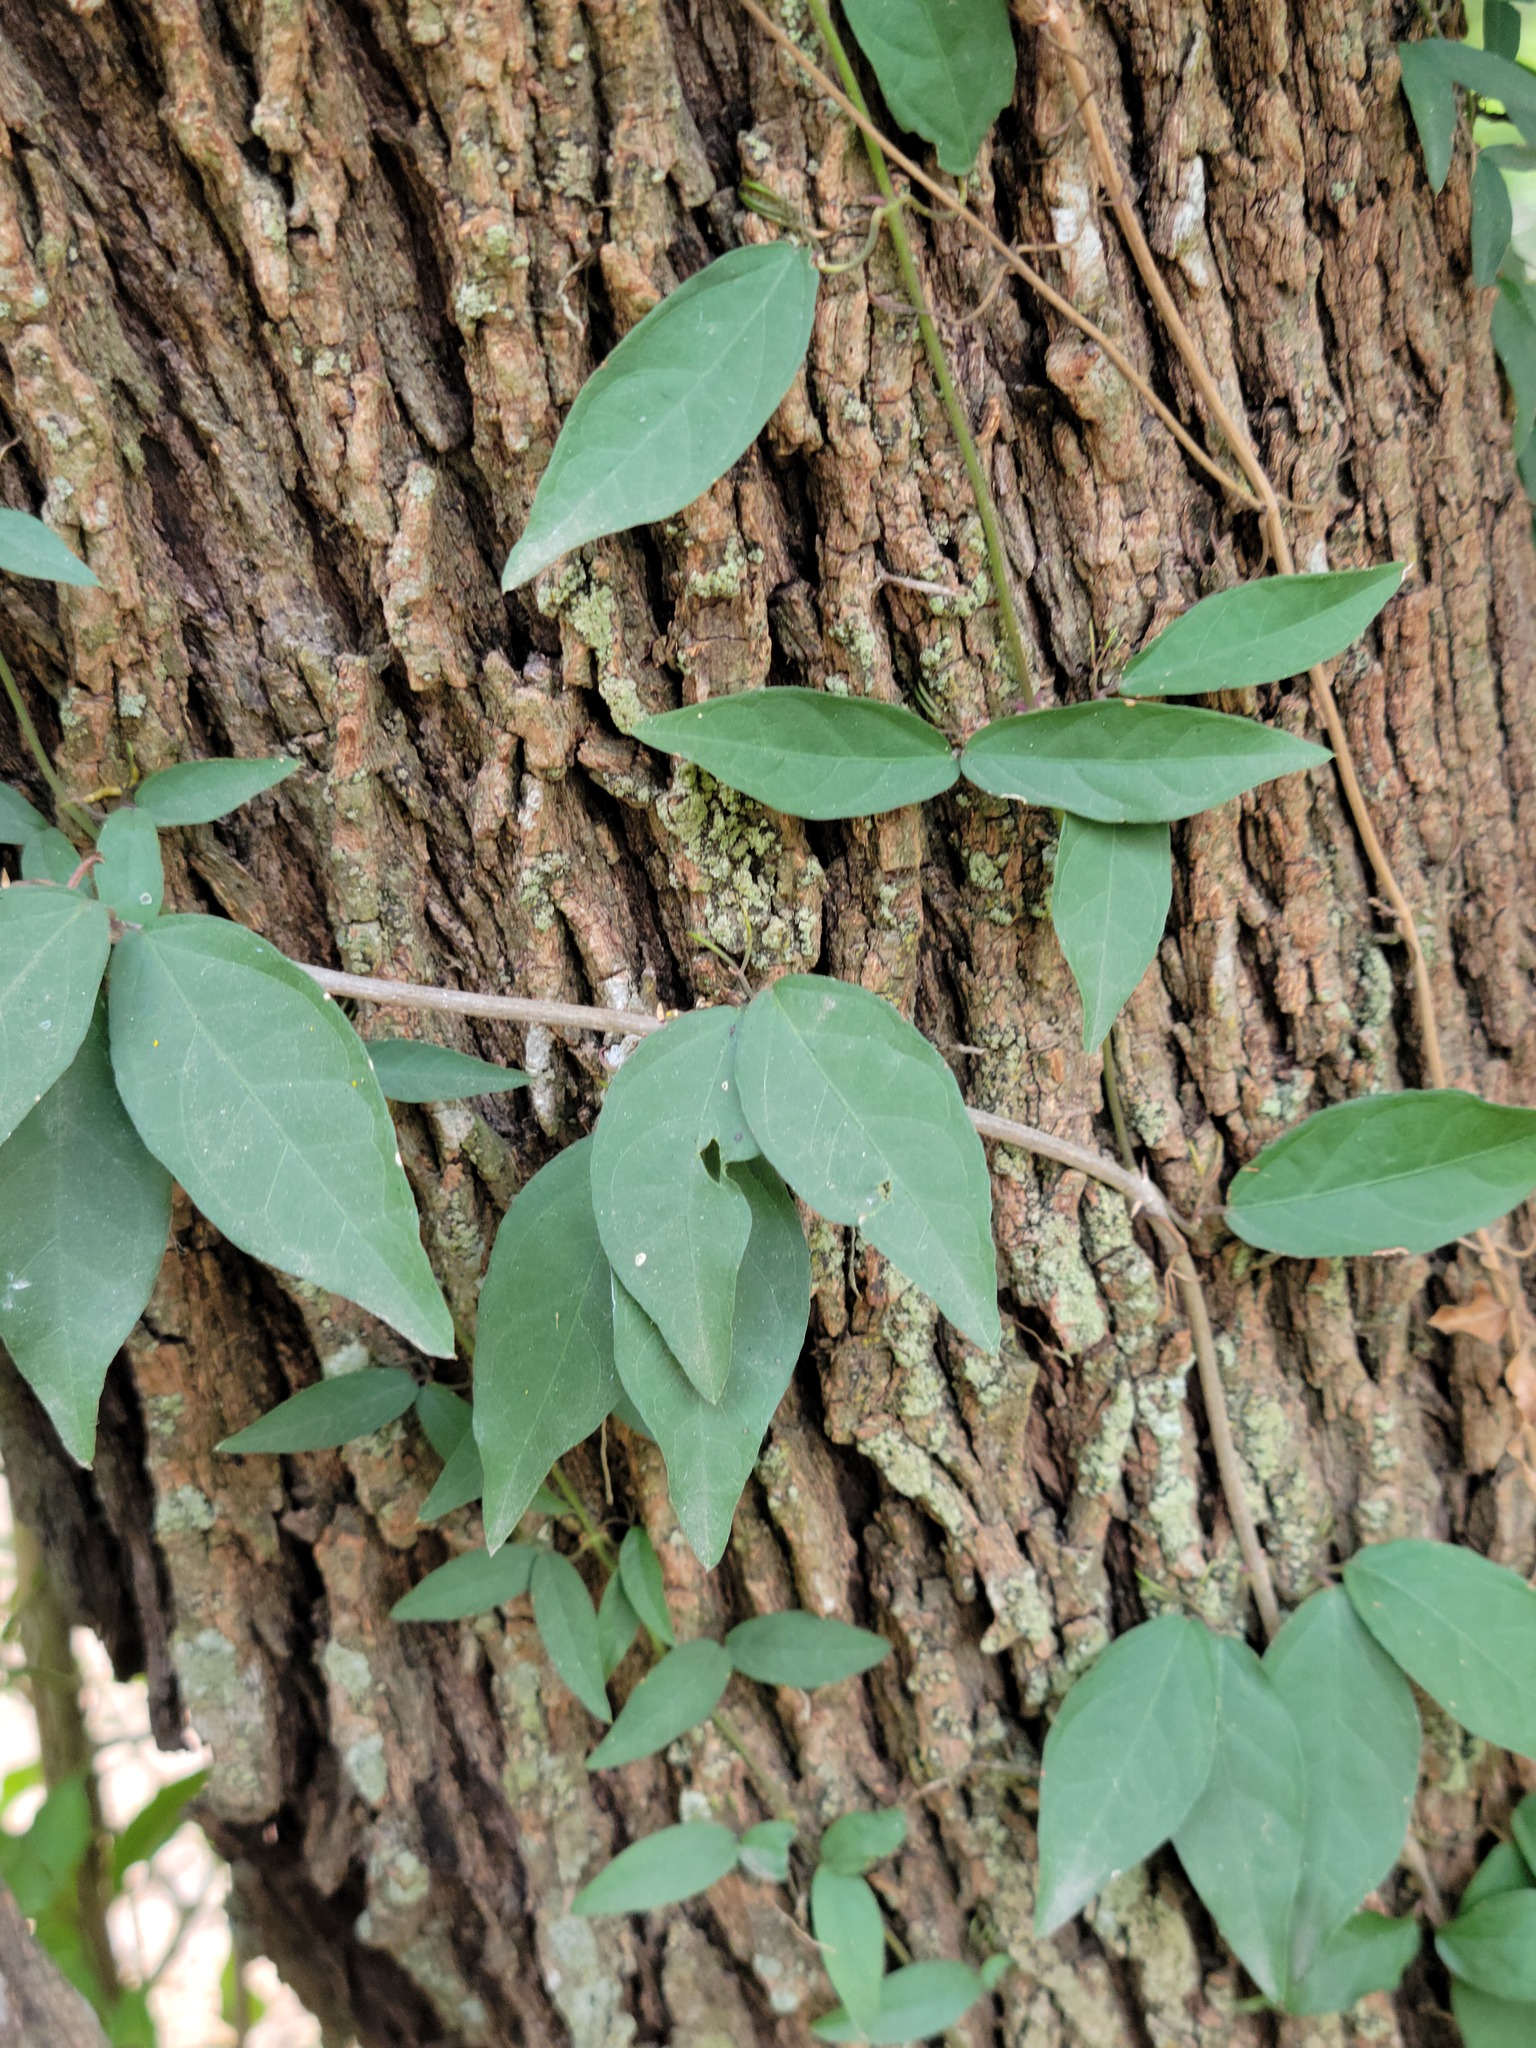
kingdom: Plantae
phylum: Tracheophyta
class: Magnoliopsida
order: Lamiales
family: Bignoniaceae
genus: Dolichandra
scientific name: Dolichandra unguis-cati
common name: Catclaw vine
